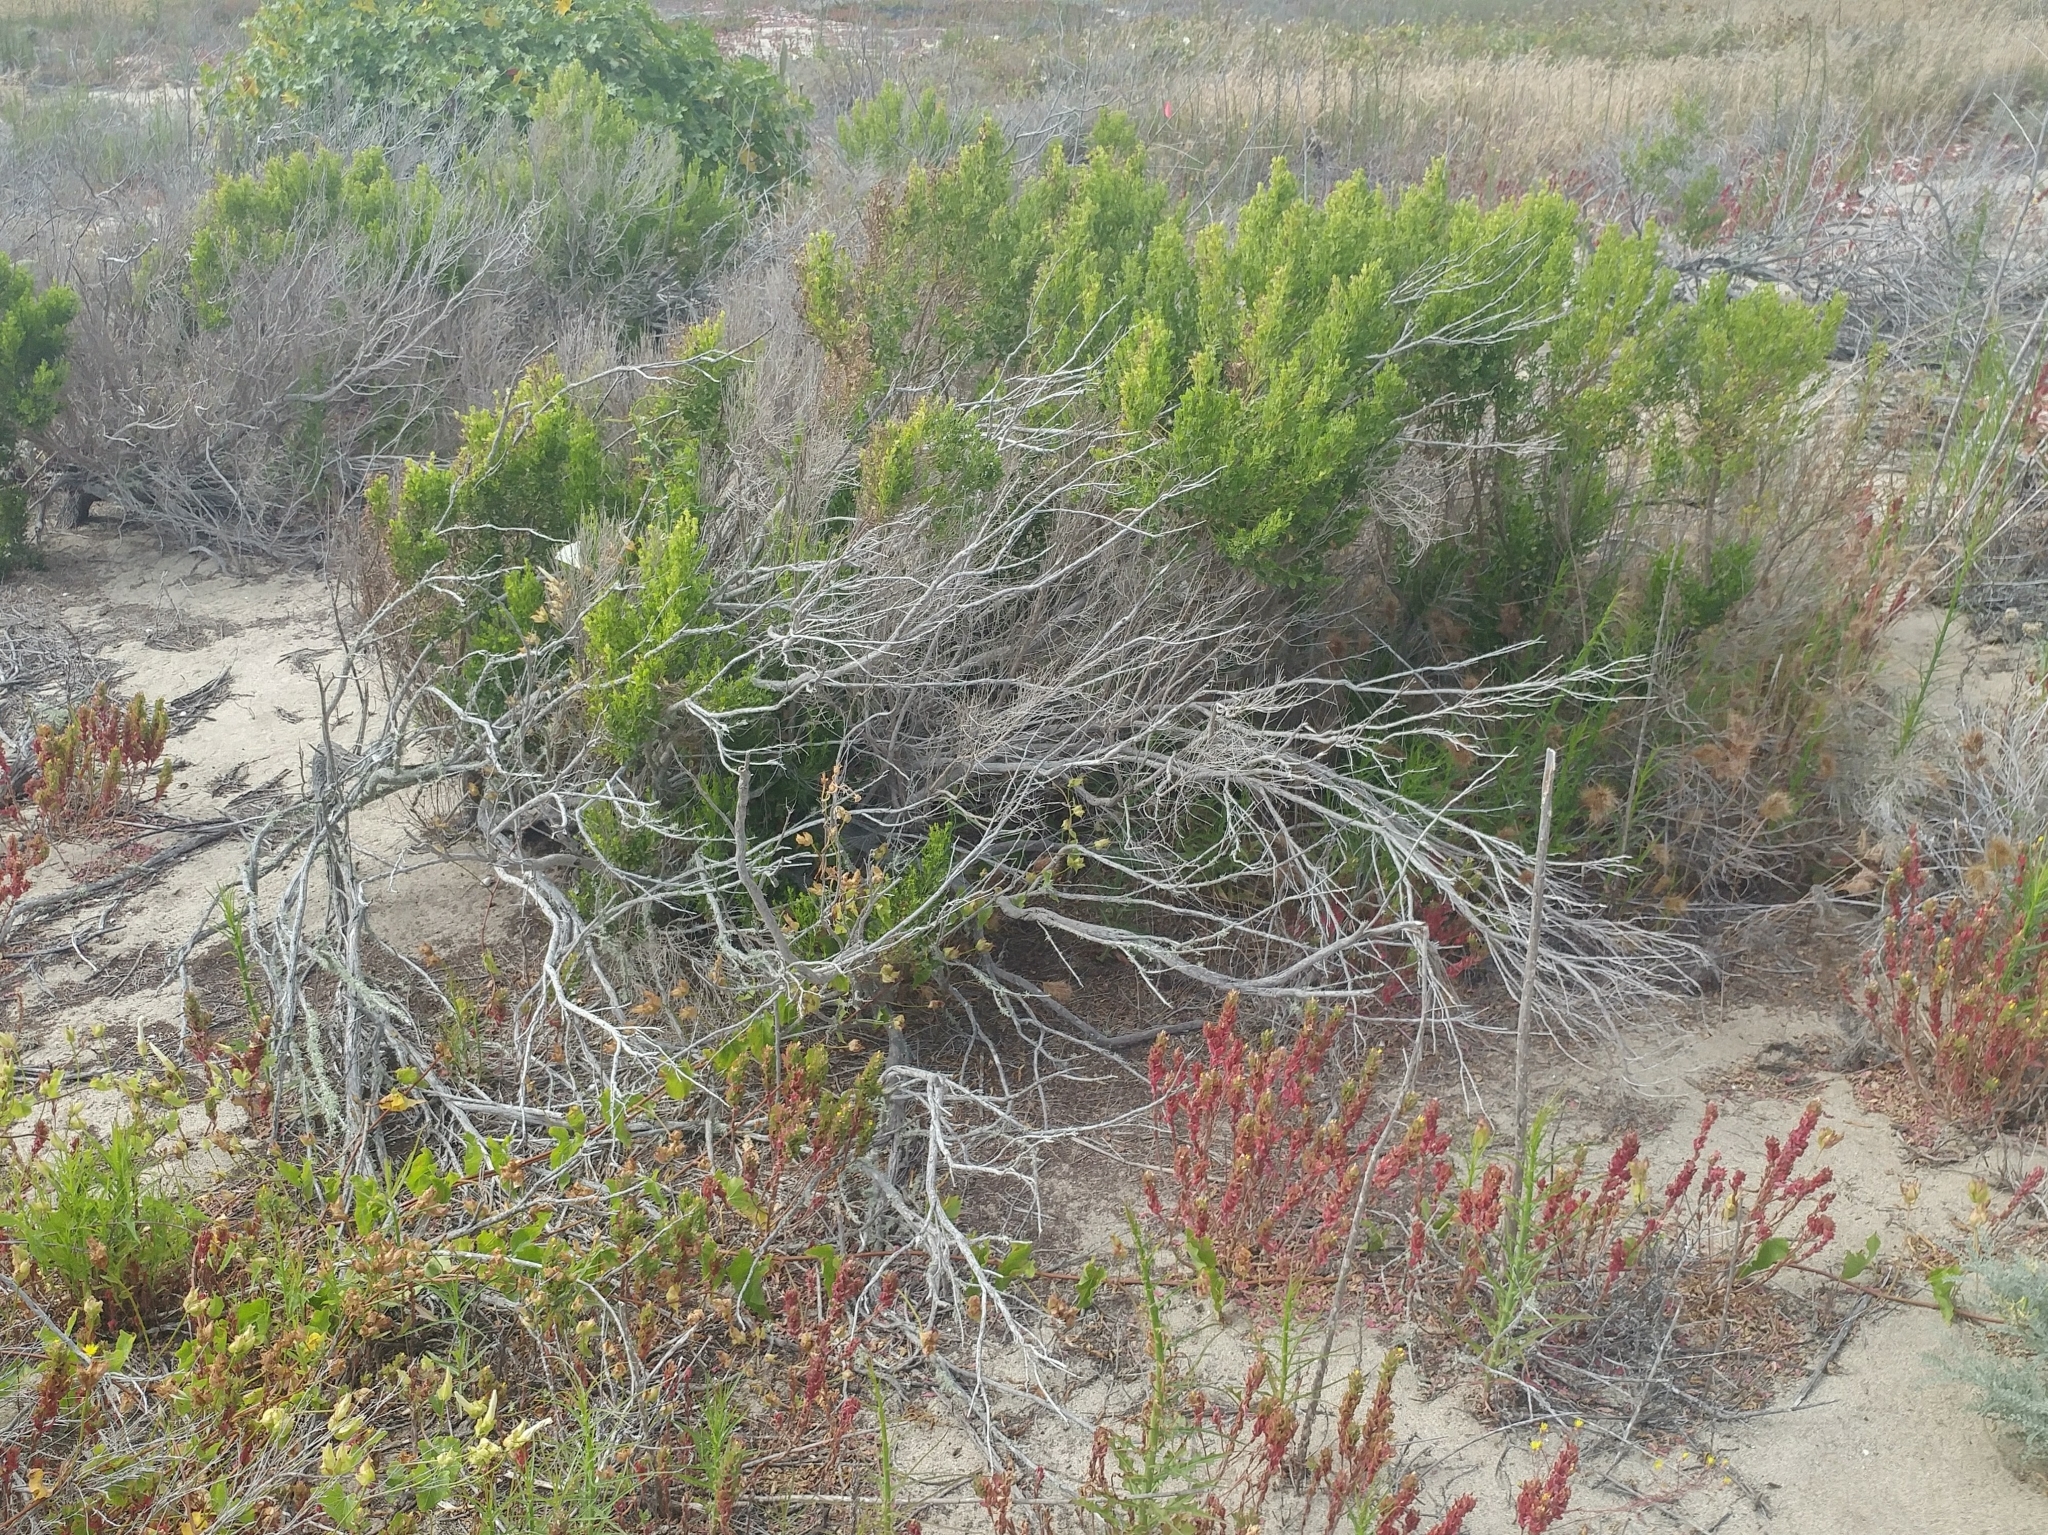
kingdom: Plantae
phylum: Tracheophyta
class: Magnoliopsida
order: Asterales
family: Asteraceae
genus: Baccharis
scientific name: Baccharis pilularis
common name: Coyotebrush
